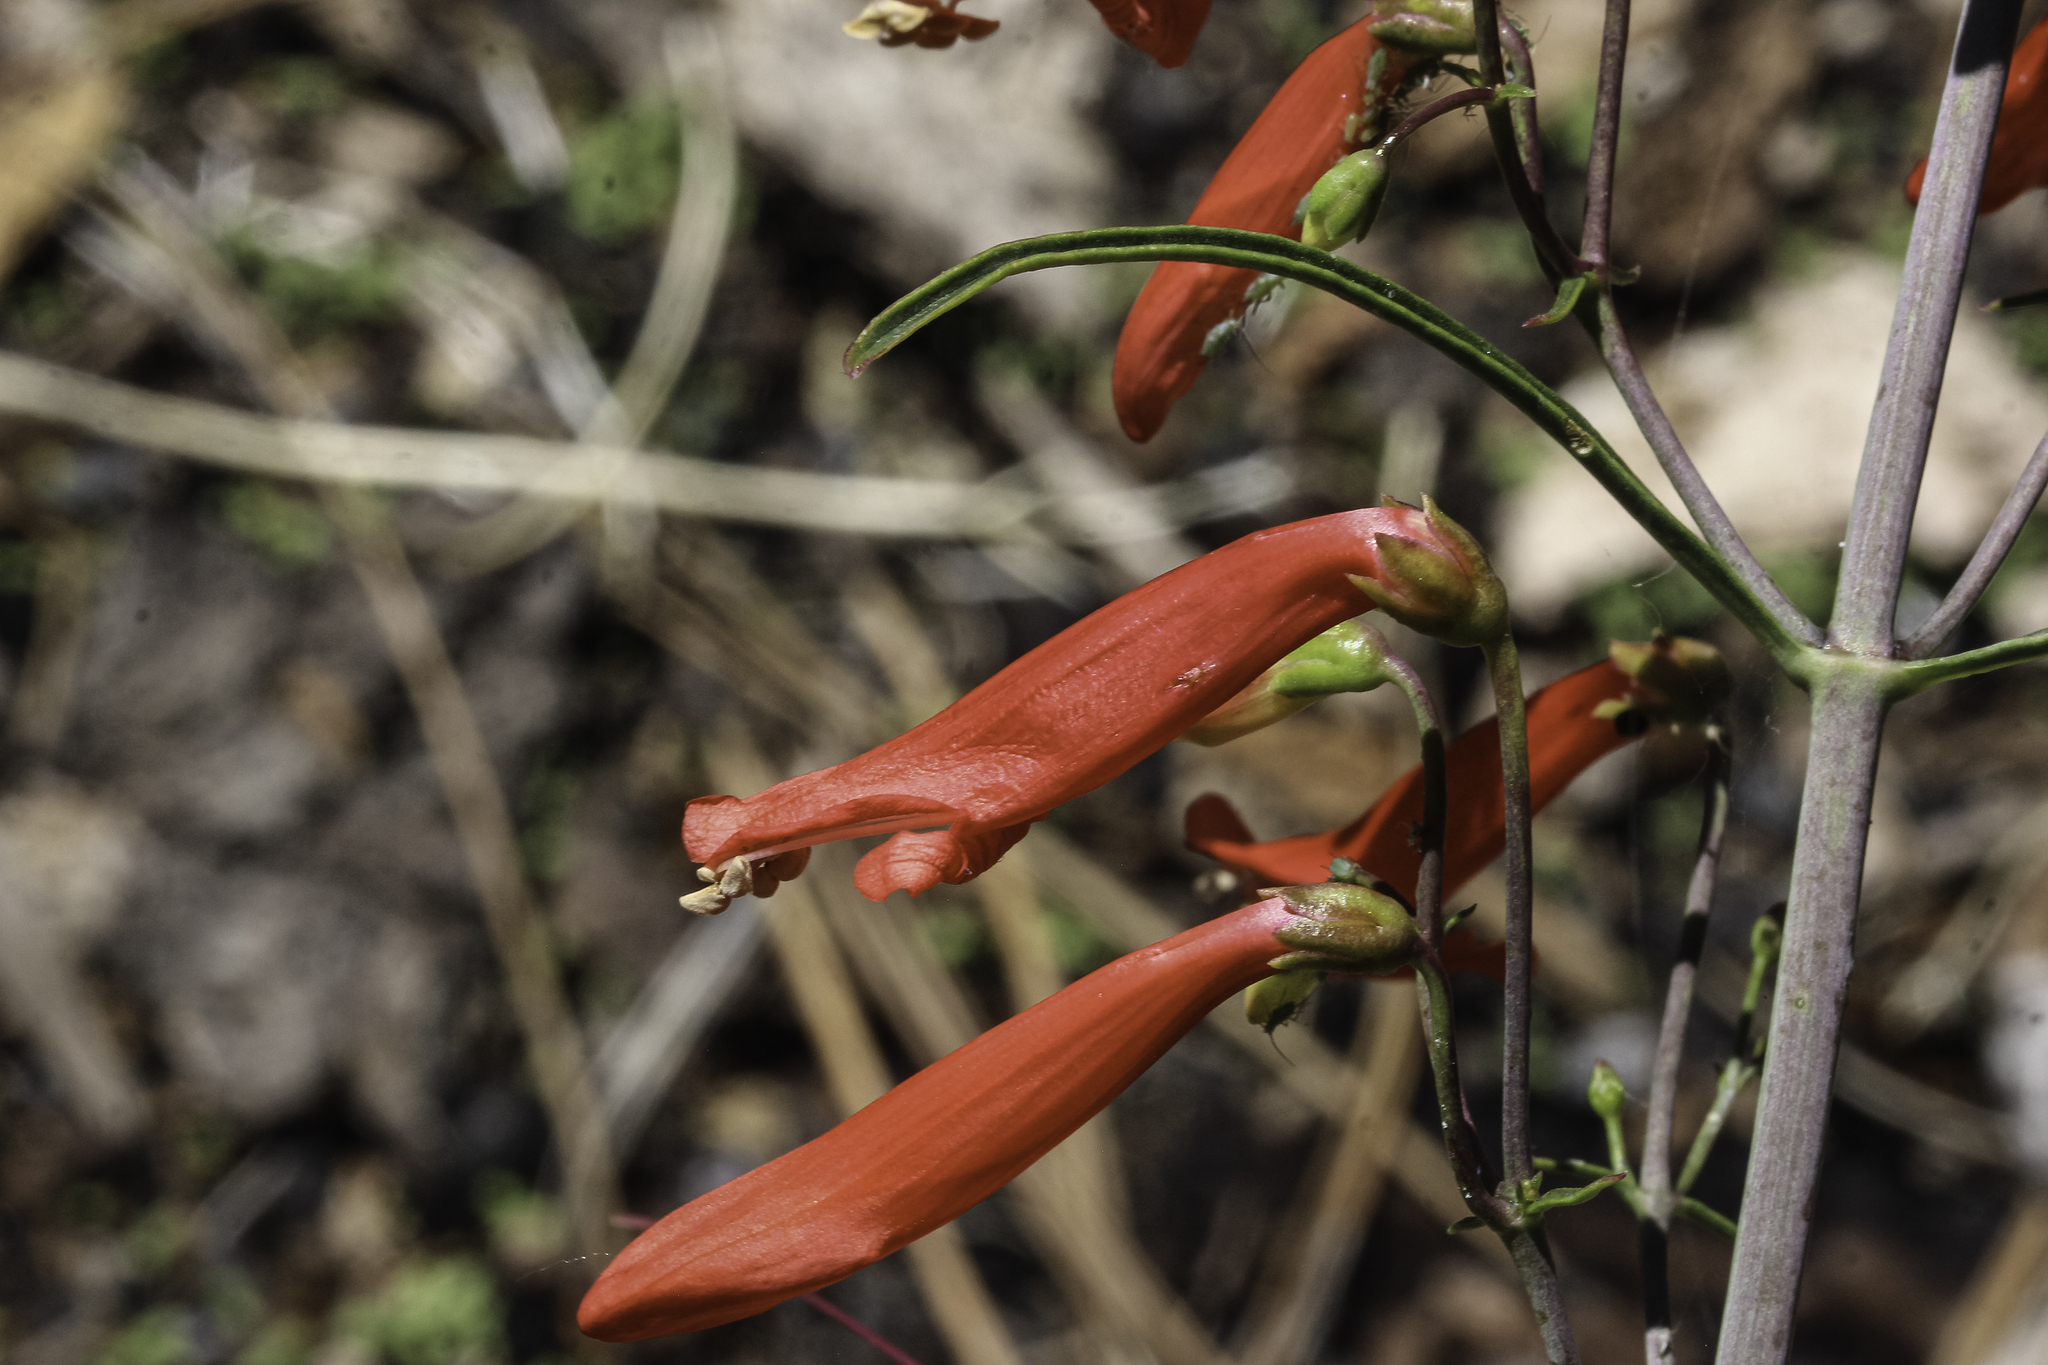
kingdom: Plantae
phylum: Tracheophyta
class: Magnoliopsida
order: Lamiales
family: Plantaginaceae
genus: Penstemon
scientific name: Penstemon barbatus
